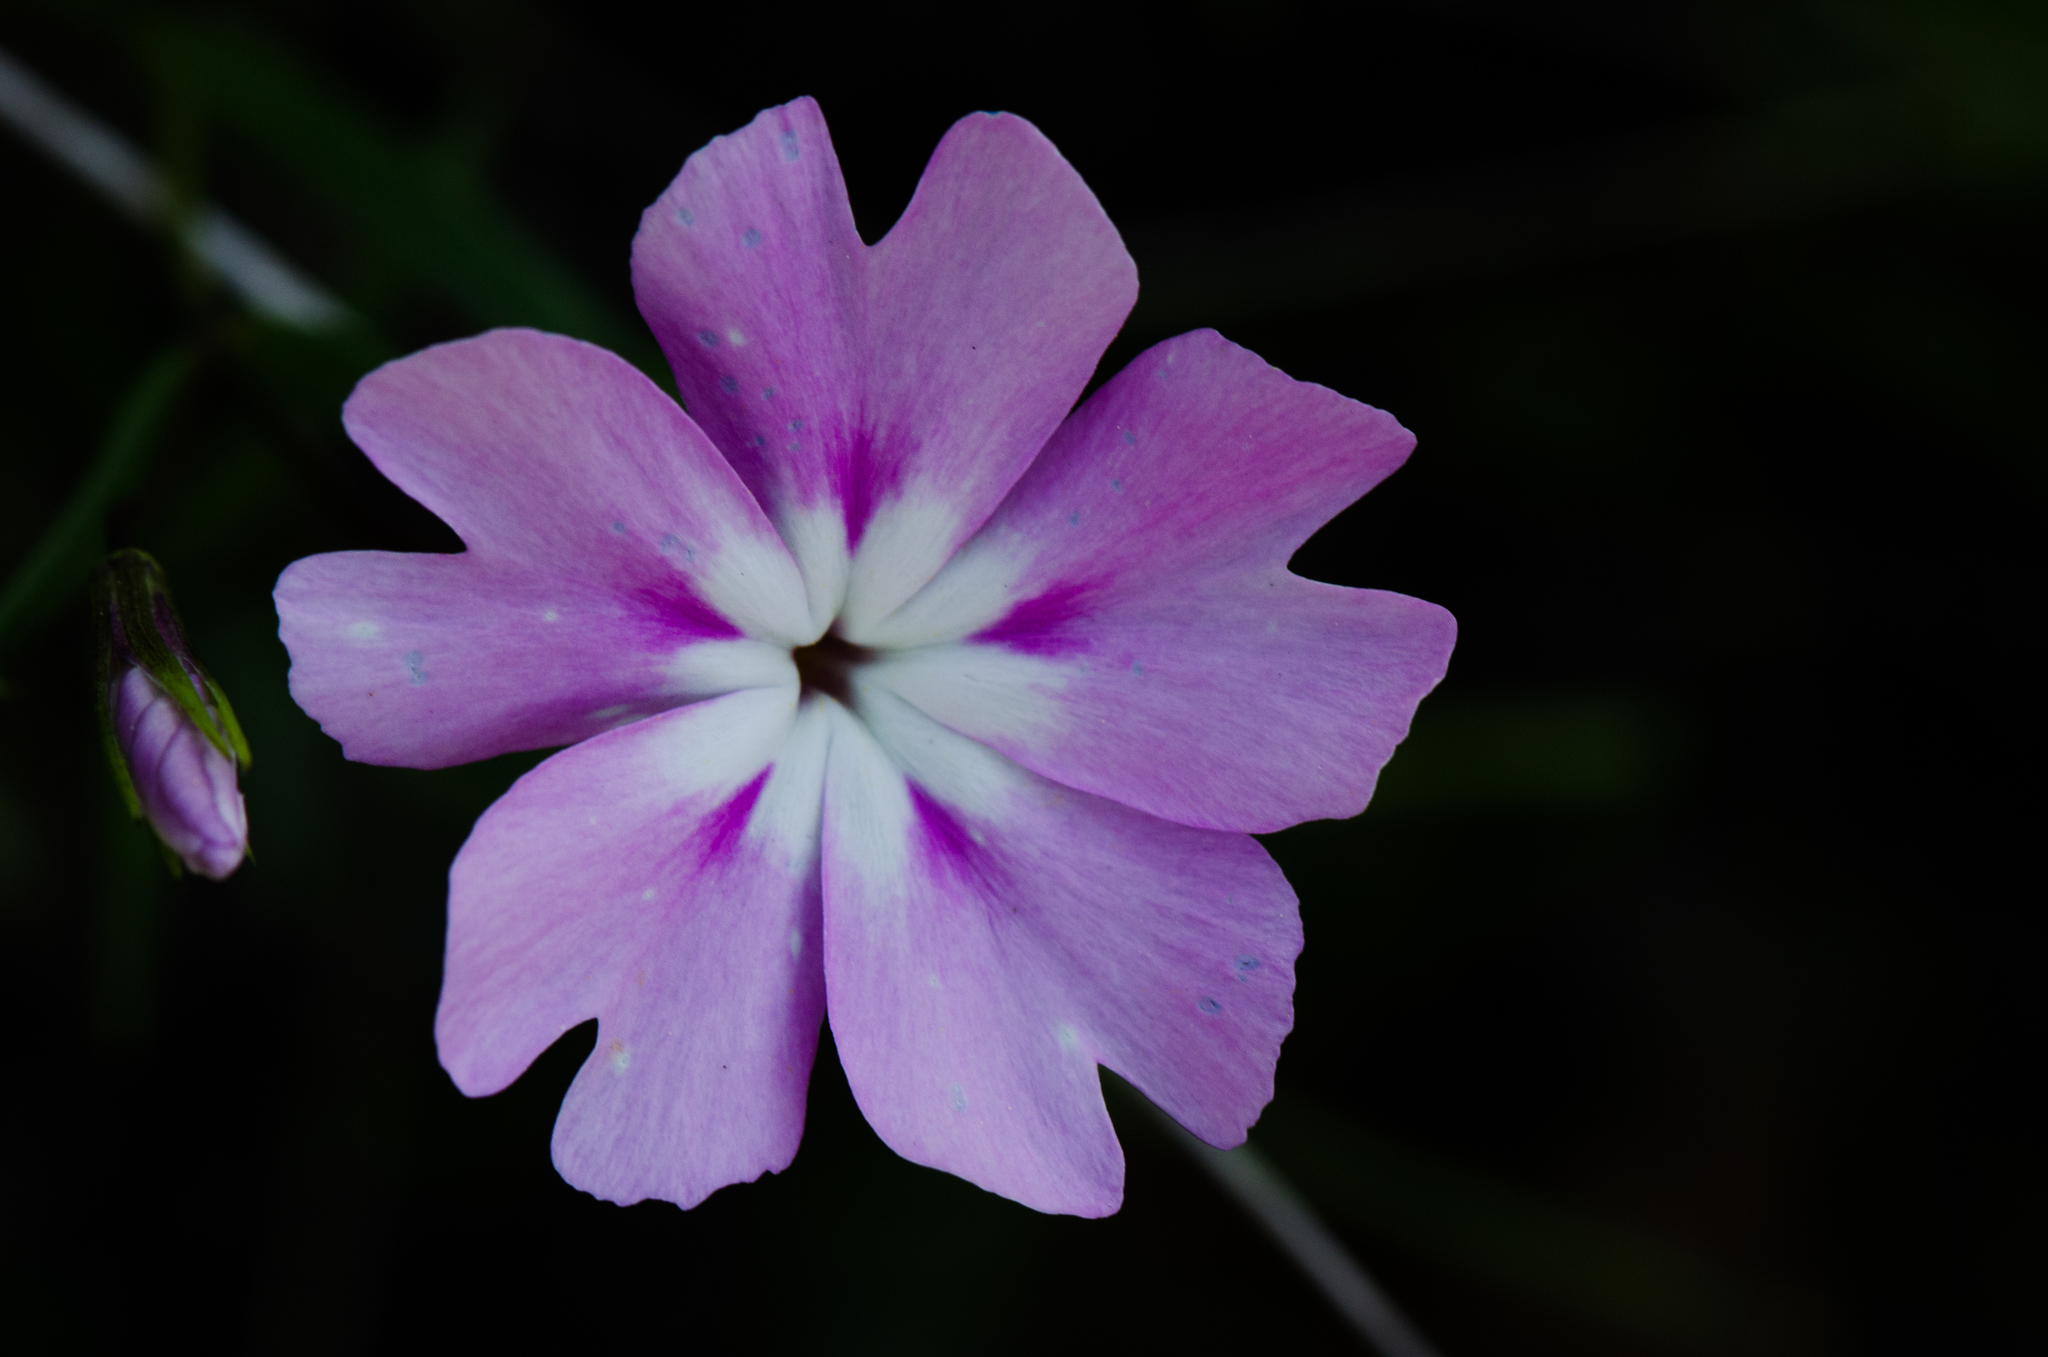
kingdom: Plantae
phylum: Tracheophyta
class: Magnoliopsida
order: Ericales
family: Polemoniaceae
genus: Phlox
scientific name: Phlox speciosa
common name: Bush phlox
